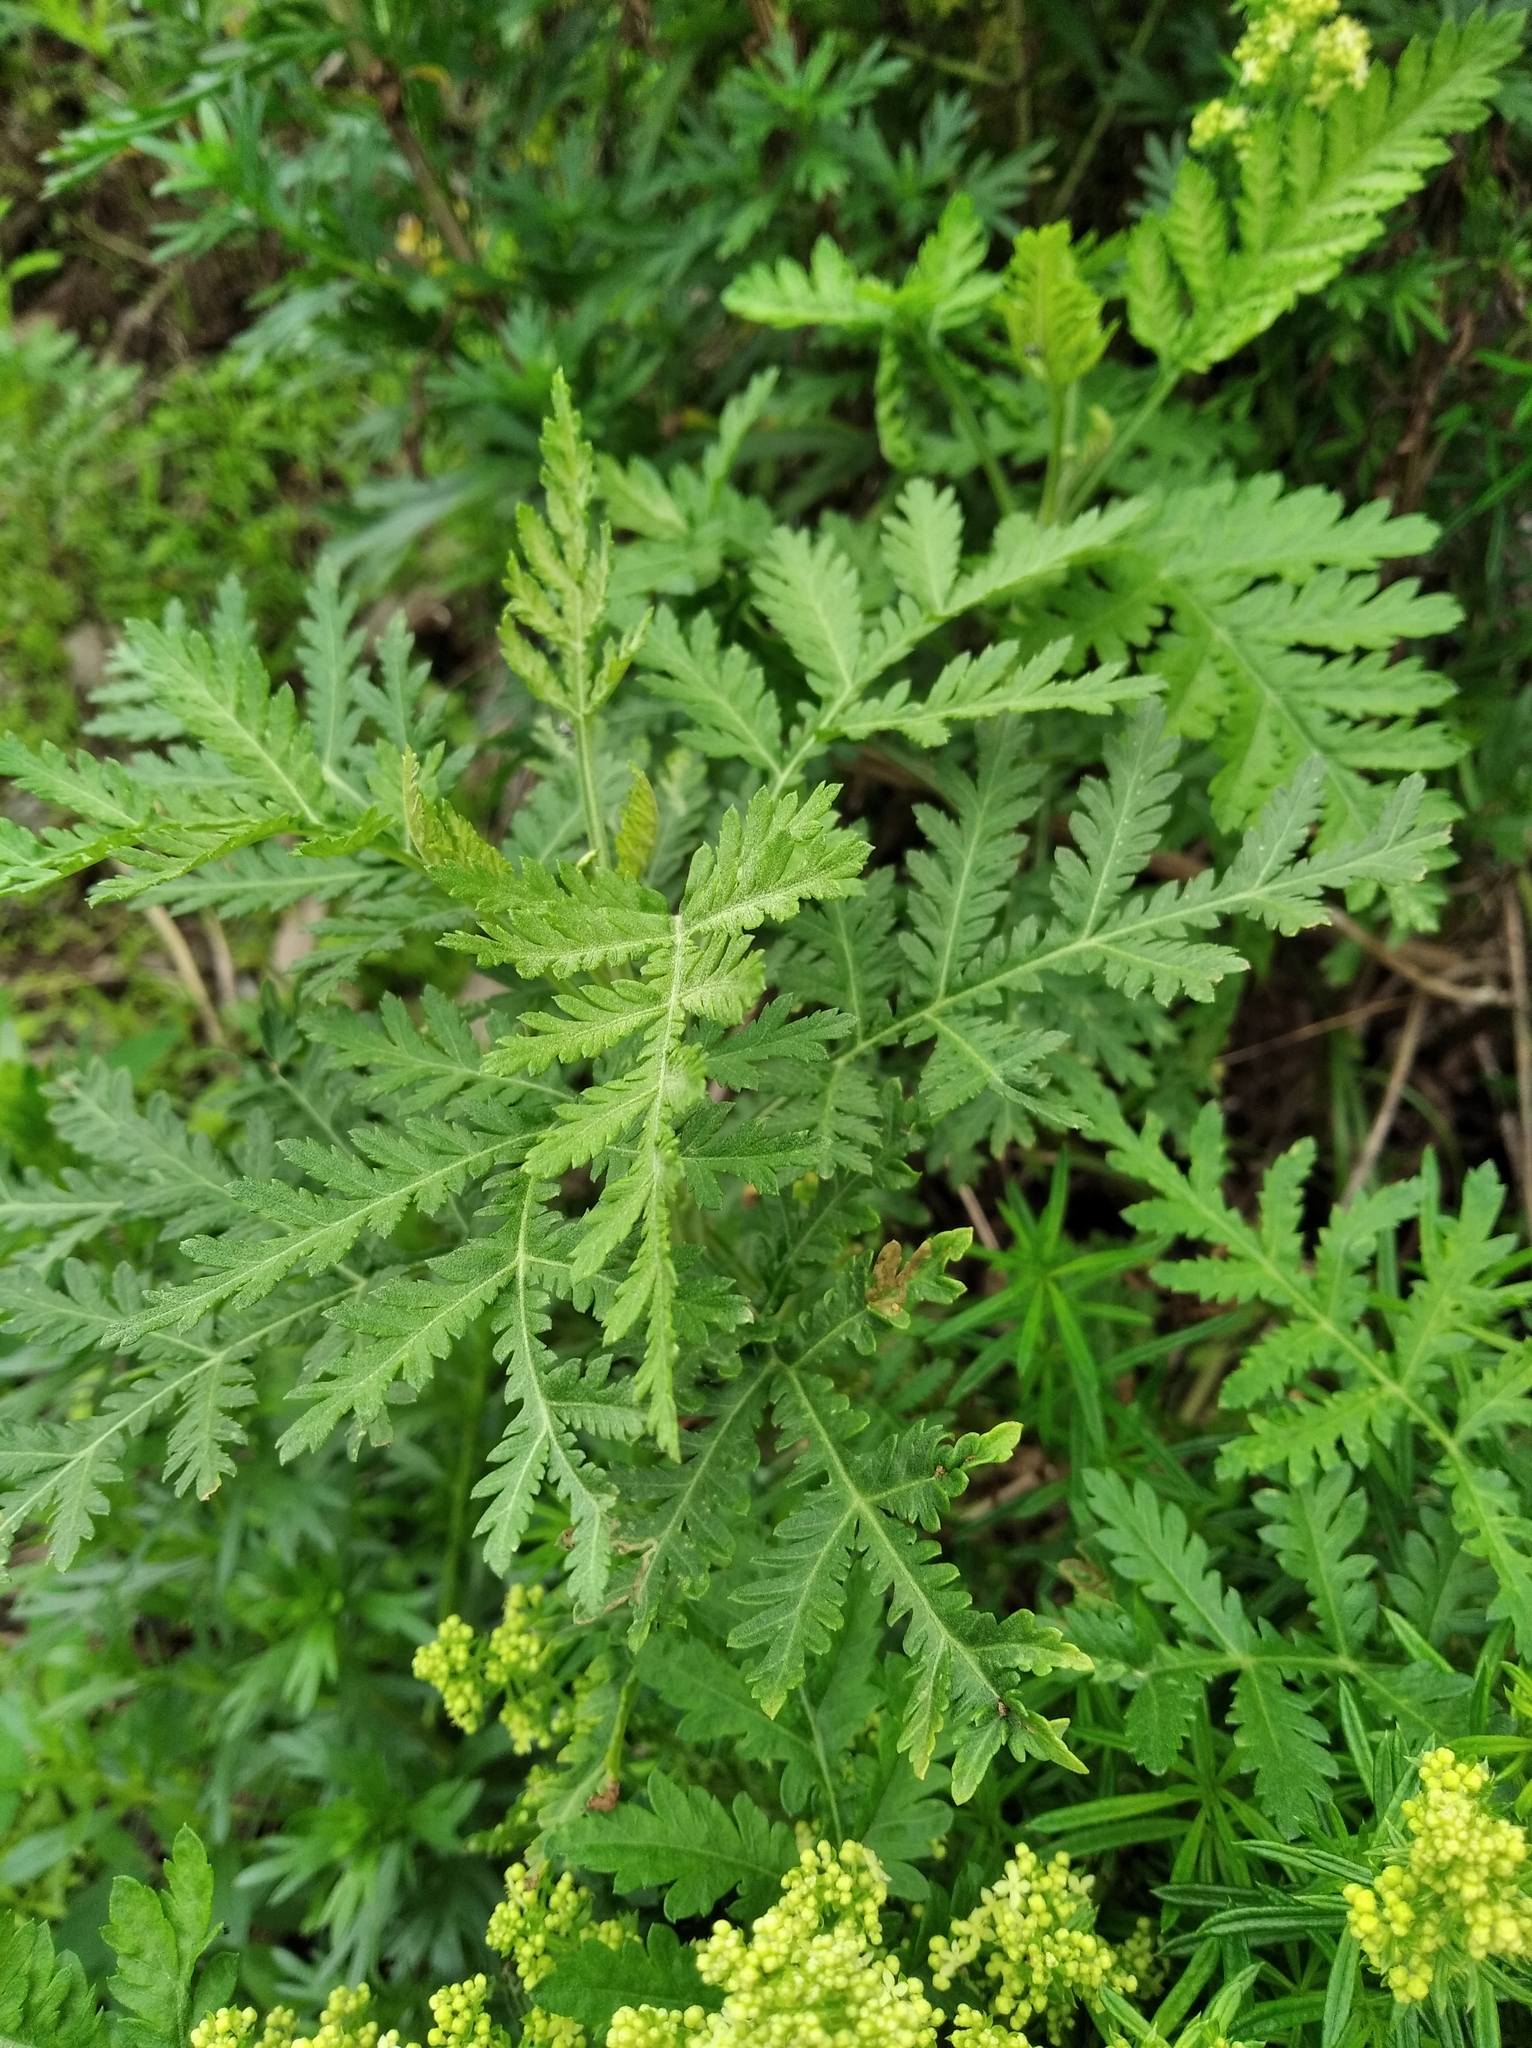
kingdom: Plantae
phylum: Tracheophyta
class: Magnoliopsida
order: Asterales
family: Asteraceae
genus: Artemisia
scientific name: Artemisia gmelinii
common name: Gmelin's wormwood
